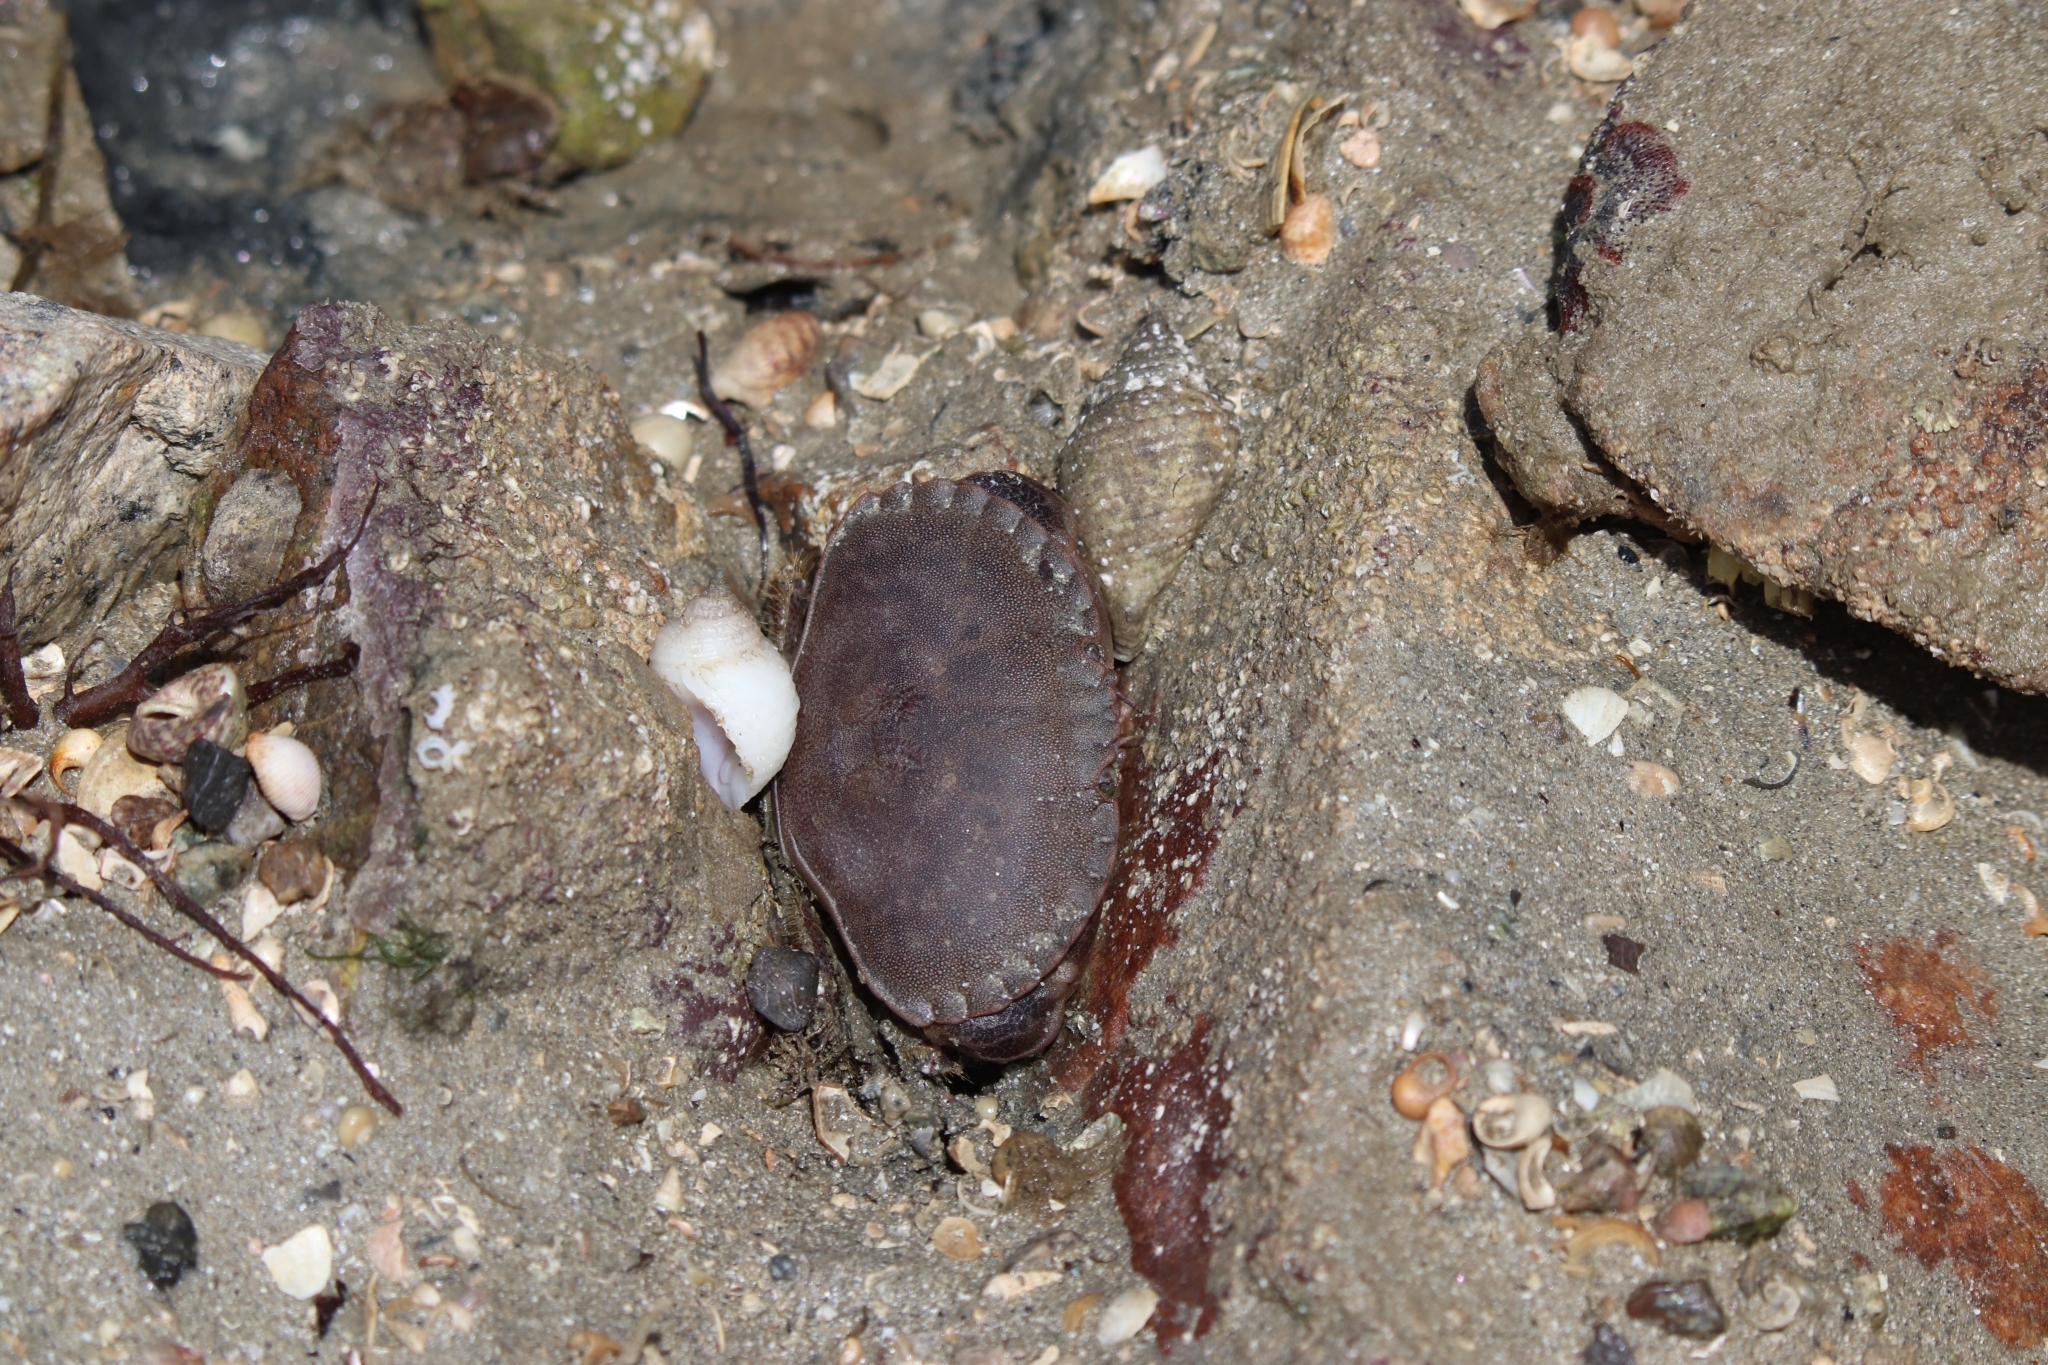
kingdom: Animalia
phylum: Arthropoda
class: Malacostraca
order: Decapoda
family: Cancridae
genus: Cancer
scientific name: Cancer pagurus
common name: Edible crab
